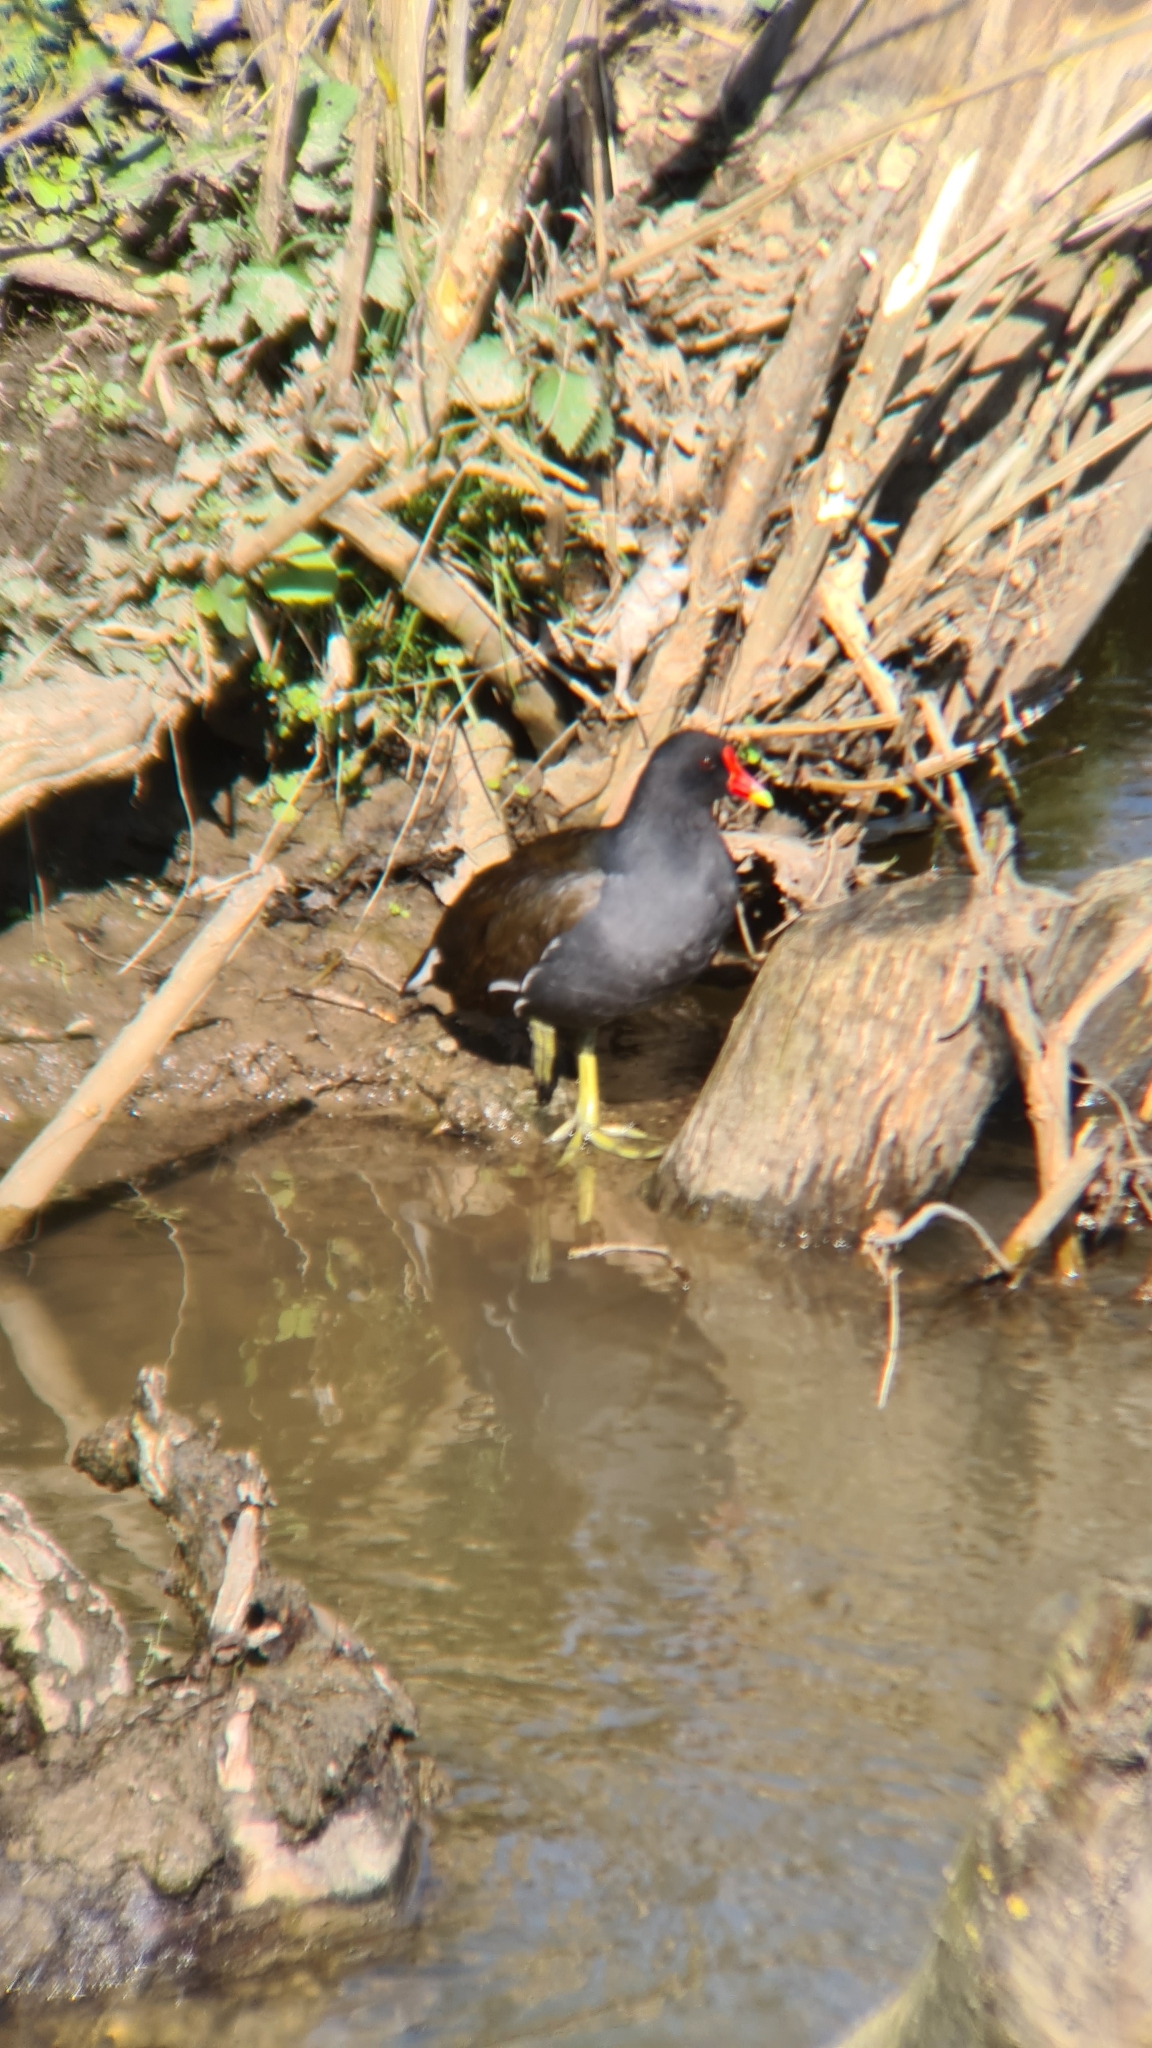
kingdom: Animalia
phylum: Chordata
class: Aves
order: Gruiformes
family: Rallidae
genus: Gallinula
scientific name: Gallinula chloropus
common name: Common moorhen
